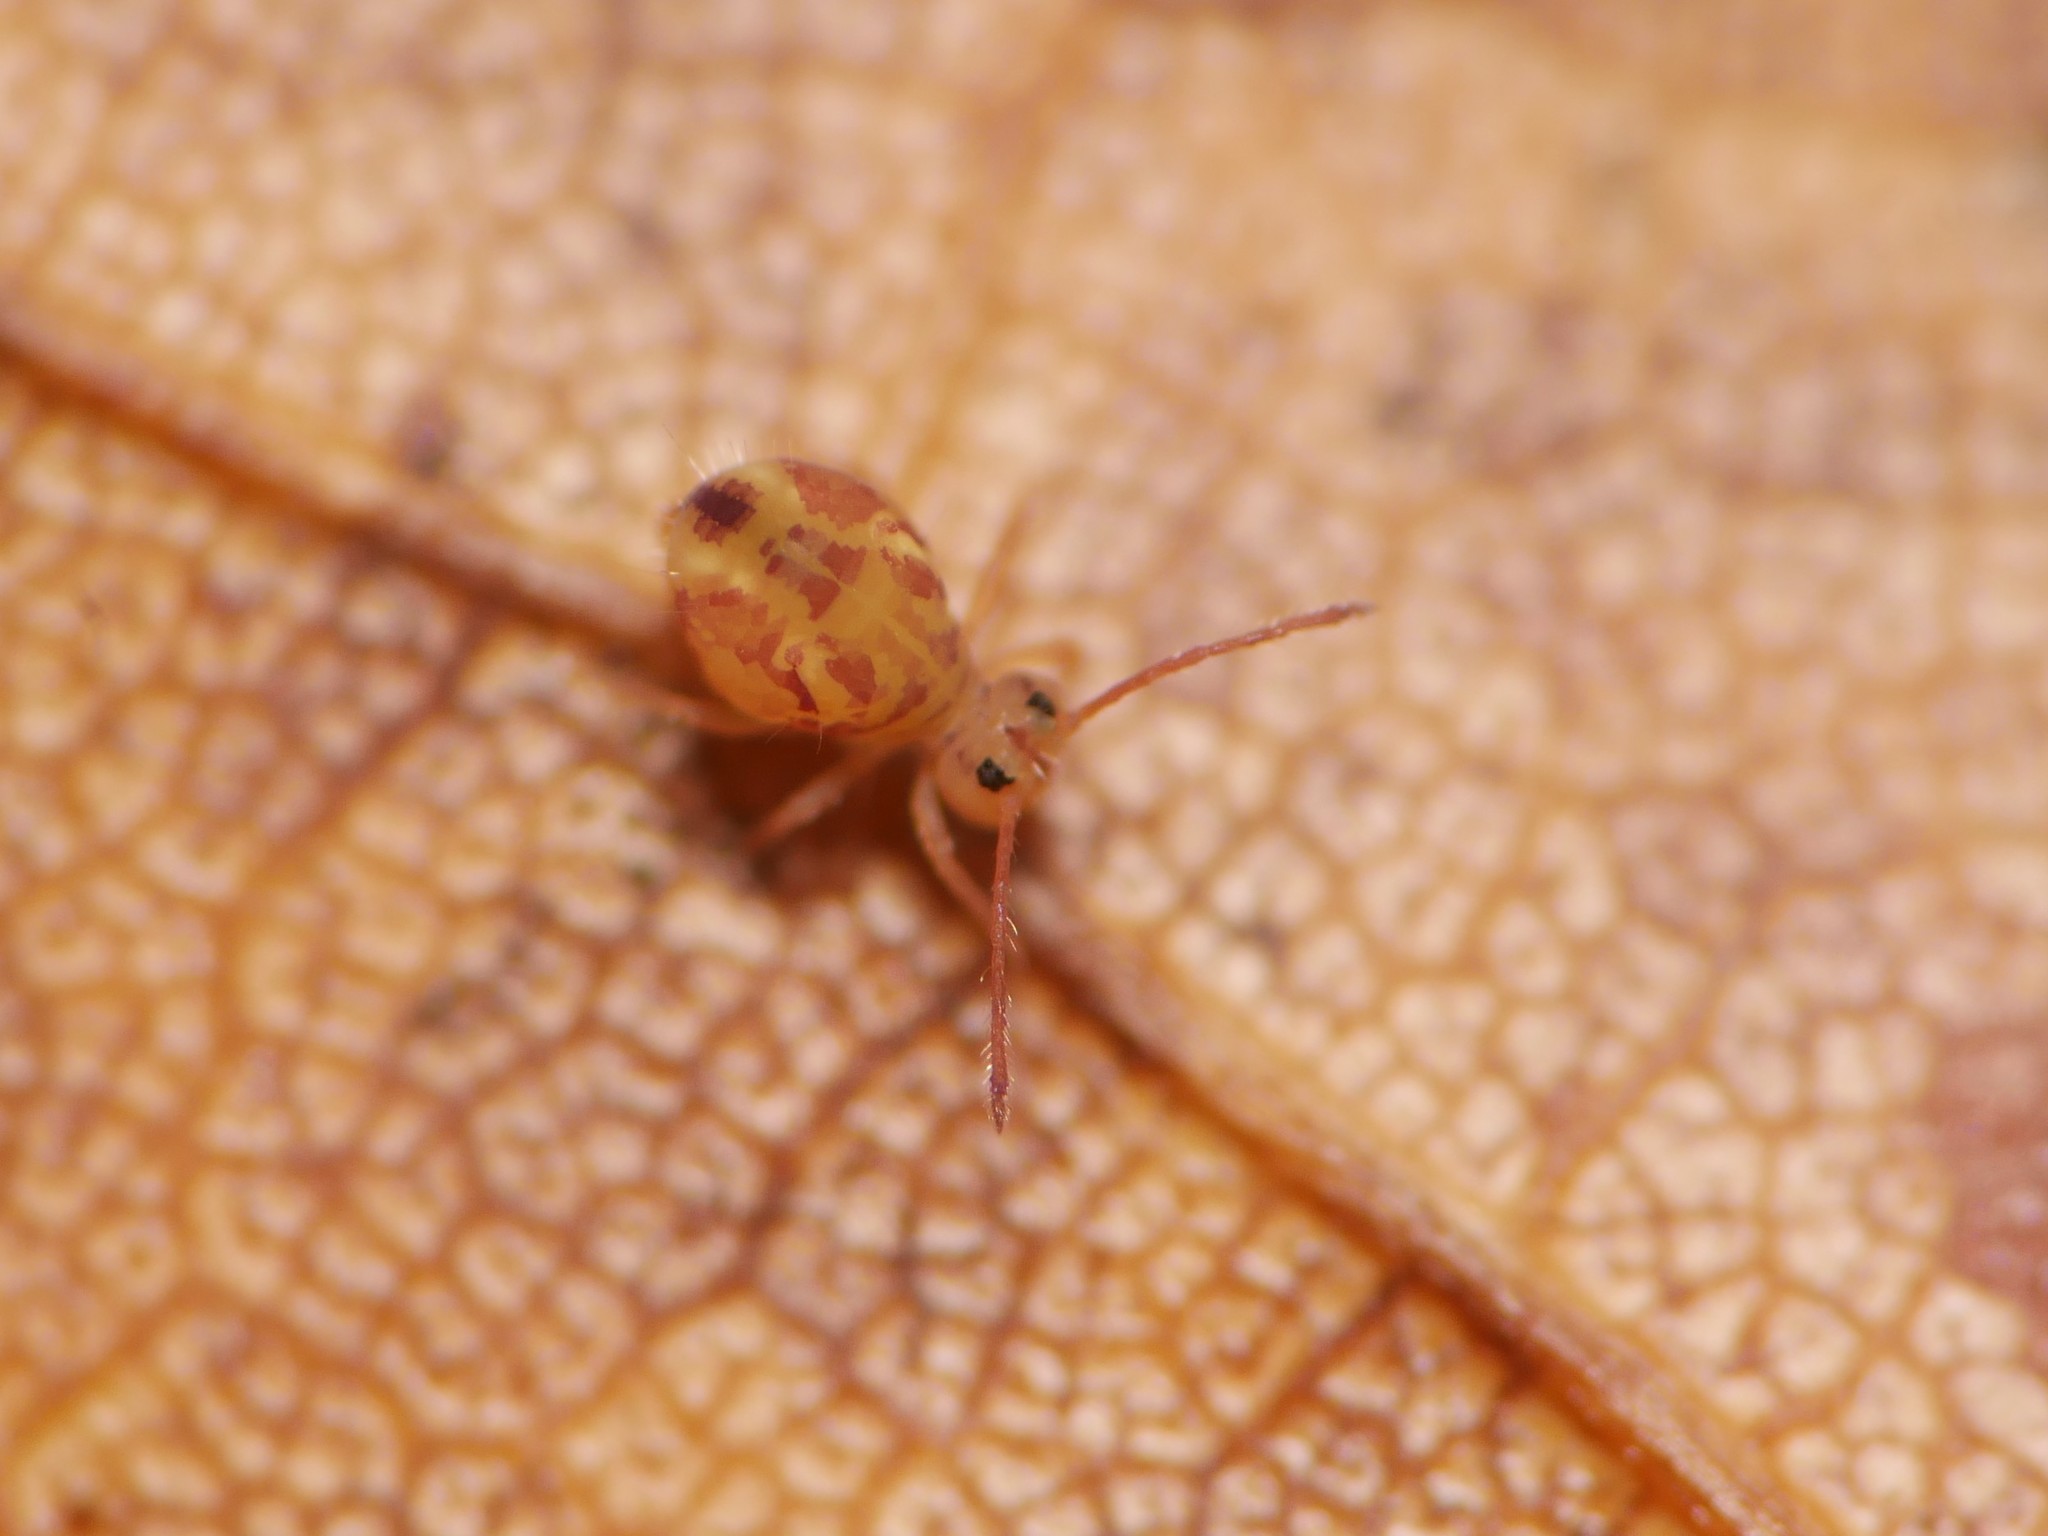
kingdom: Animalia
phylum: Arthropoda
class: Collembola
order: Symphypleona
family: Dicyrtomidae
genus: Dicyrtomina
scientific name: Dicyrtomina ornata
